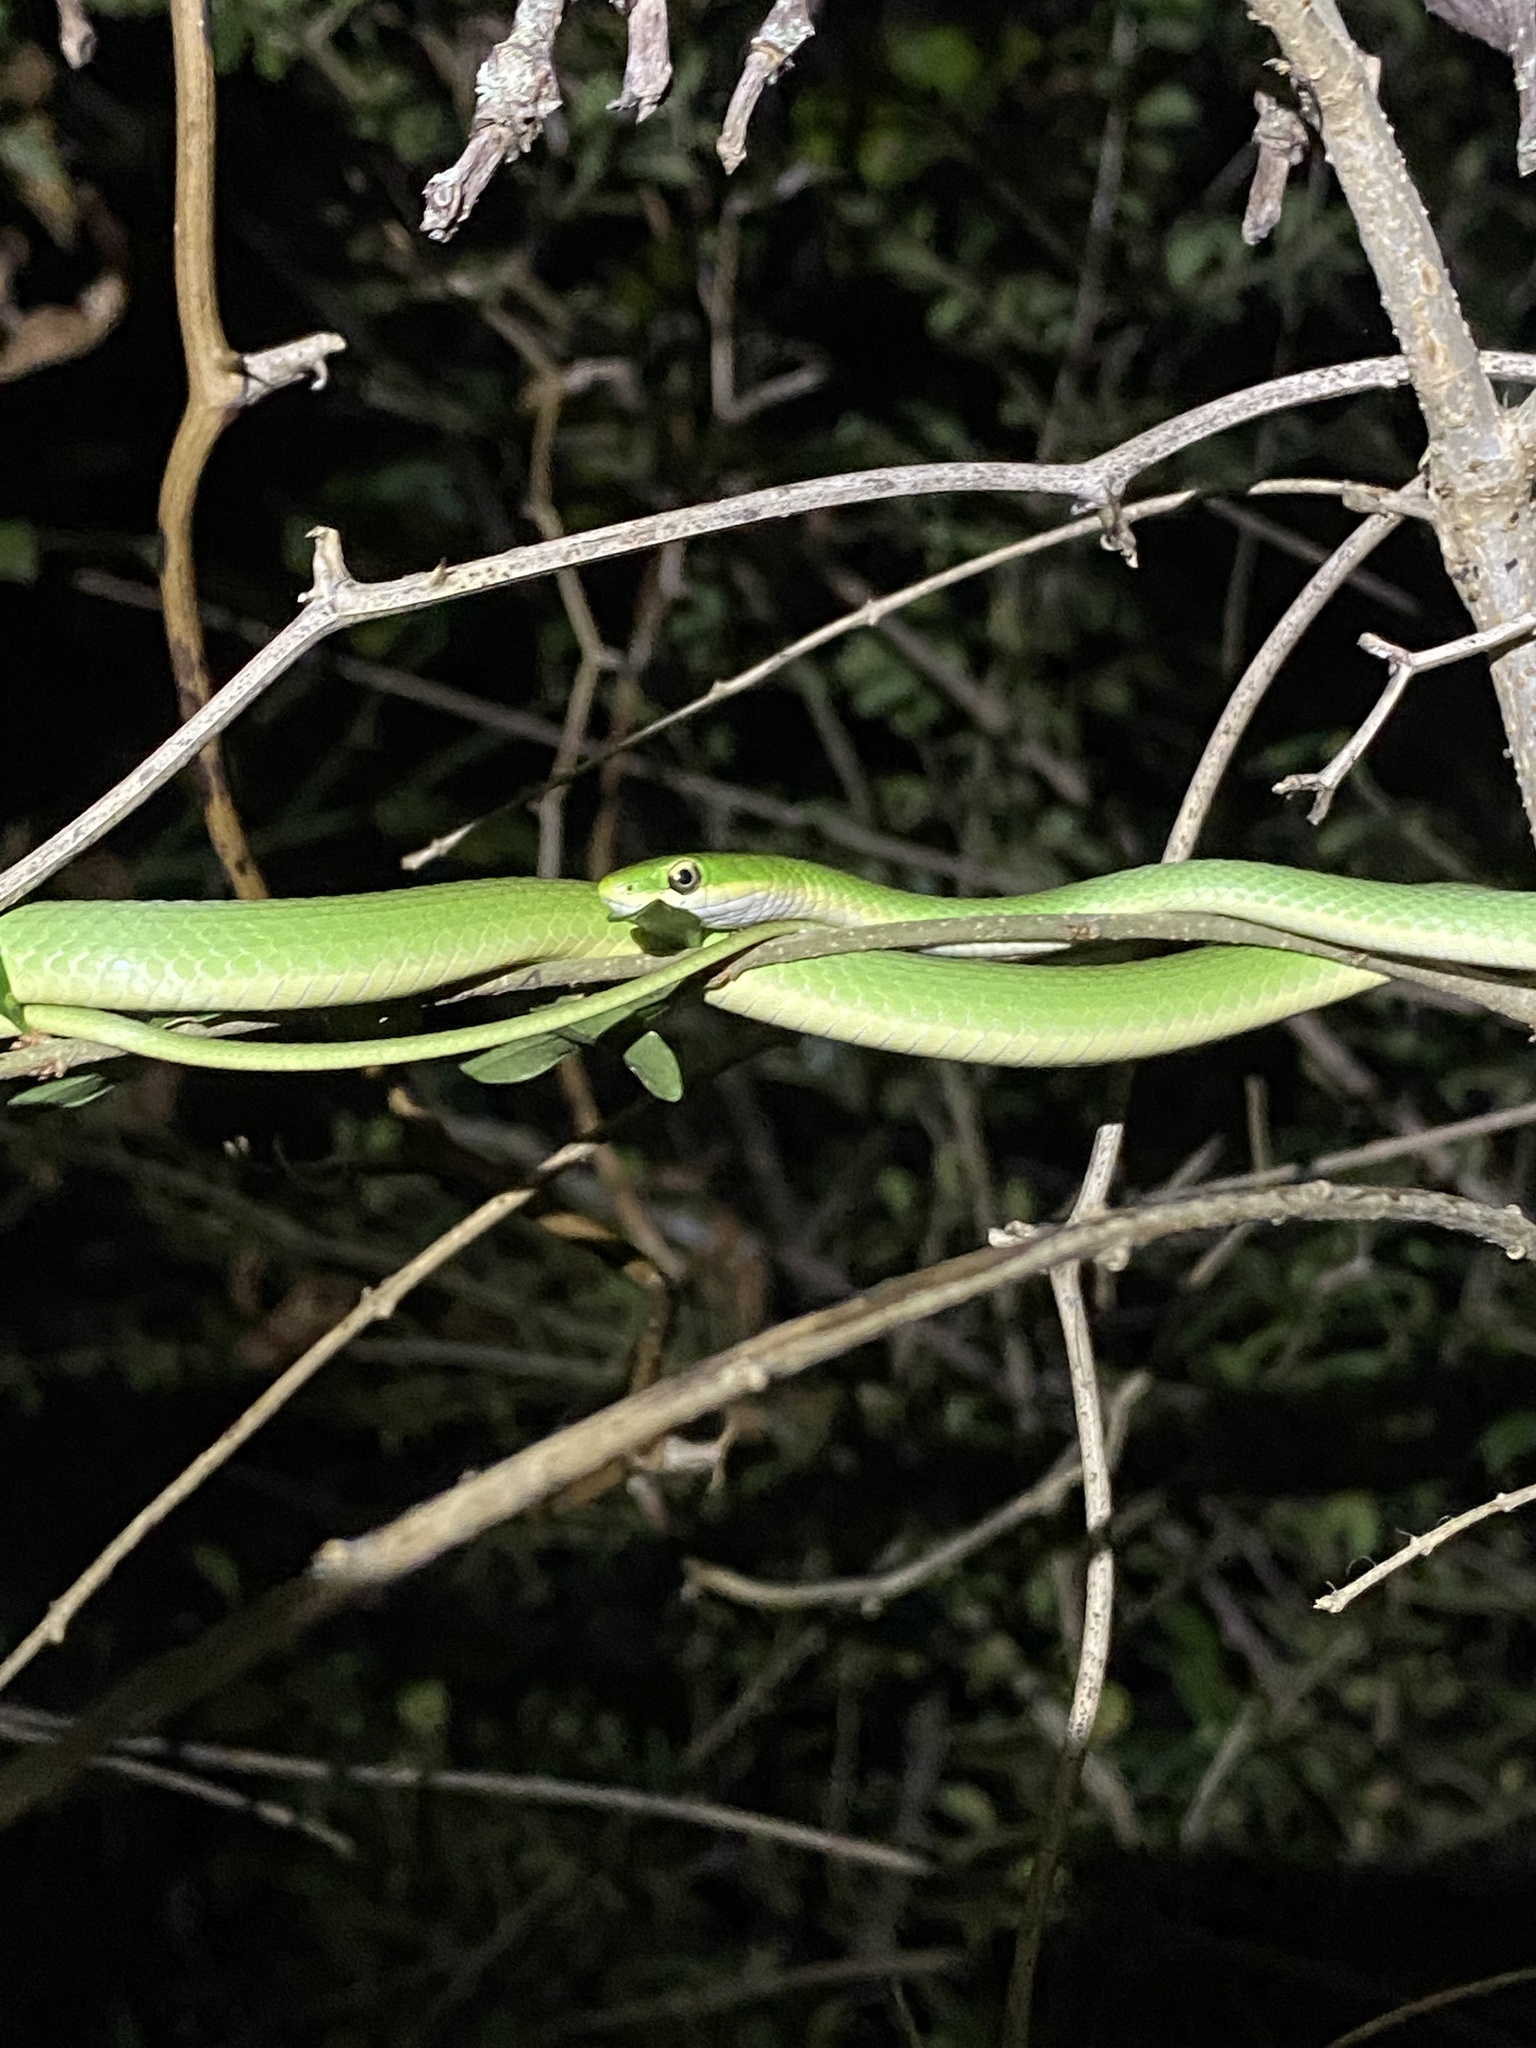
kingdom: Animalia
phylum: Chordata
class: Squamata
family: Colubridae
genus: Opheodrys
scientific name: Opheodrys aestivus
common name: Rough greensnake
